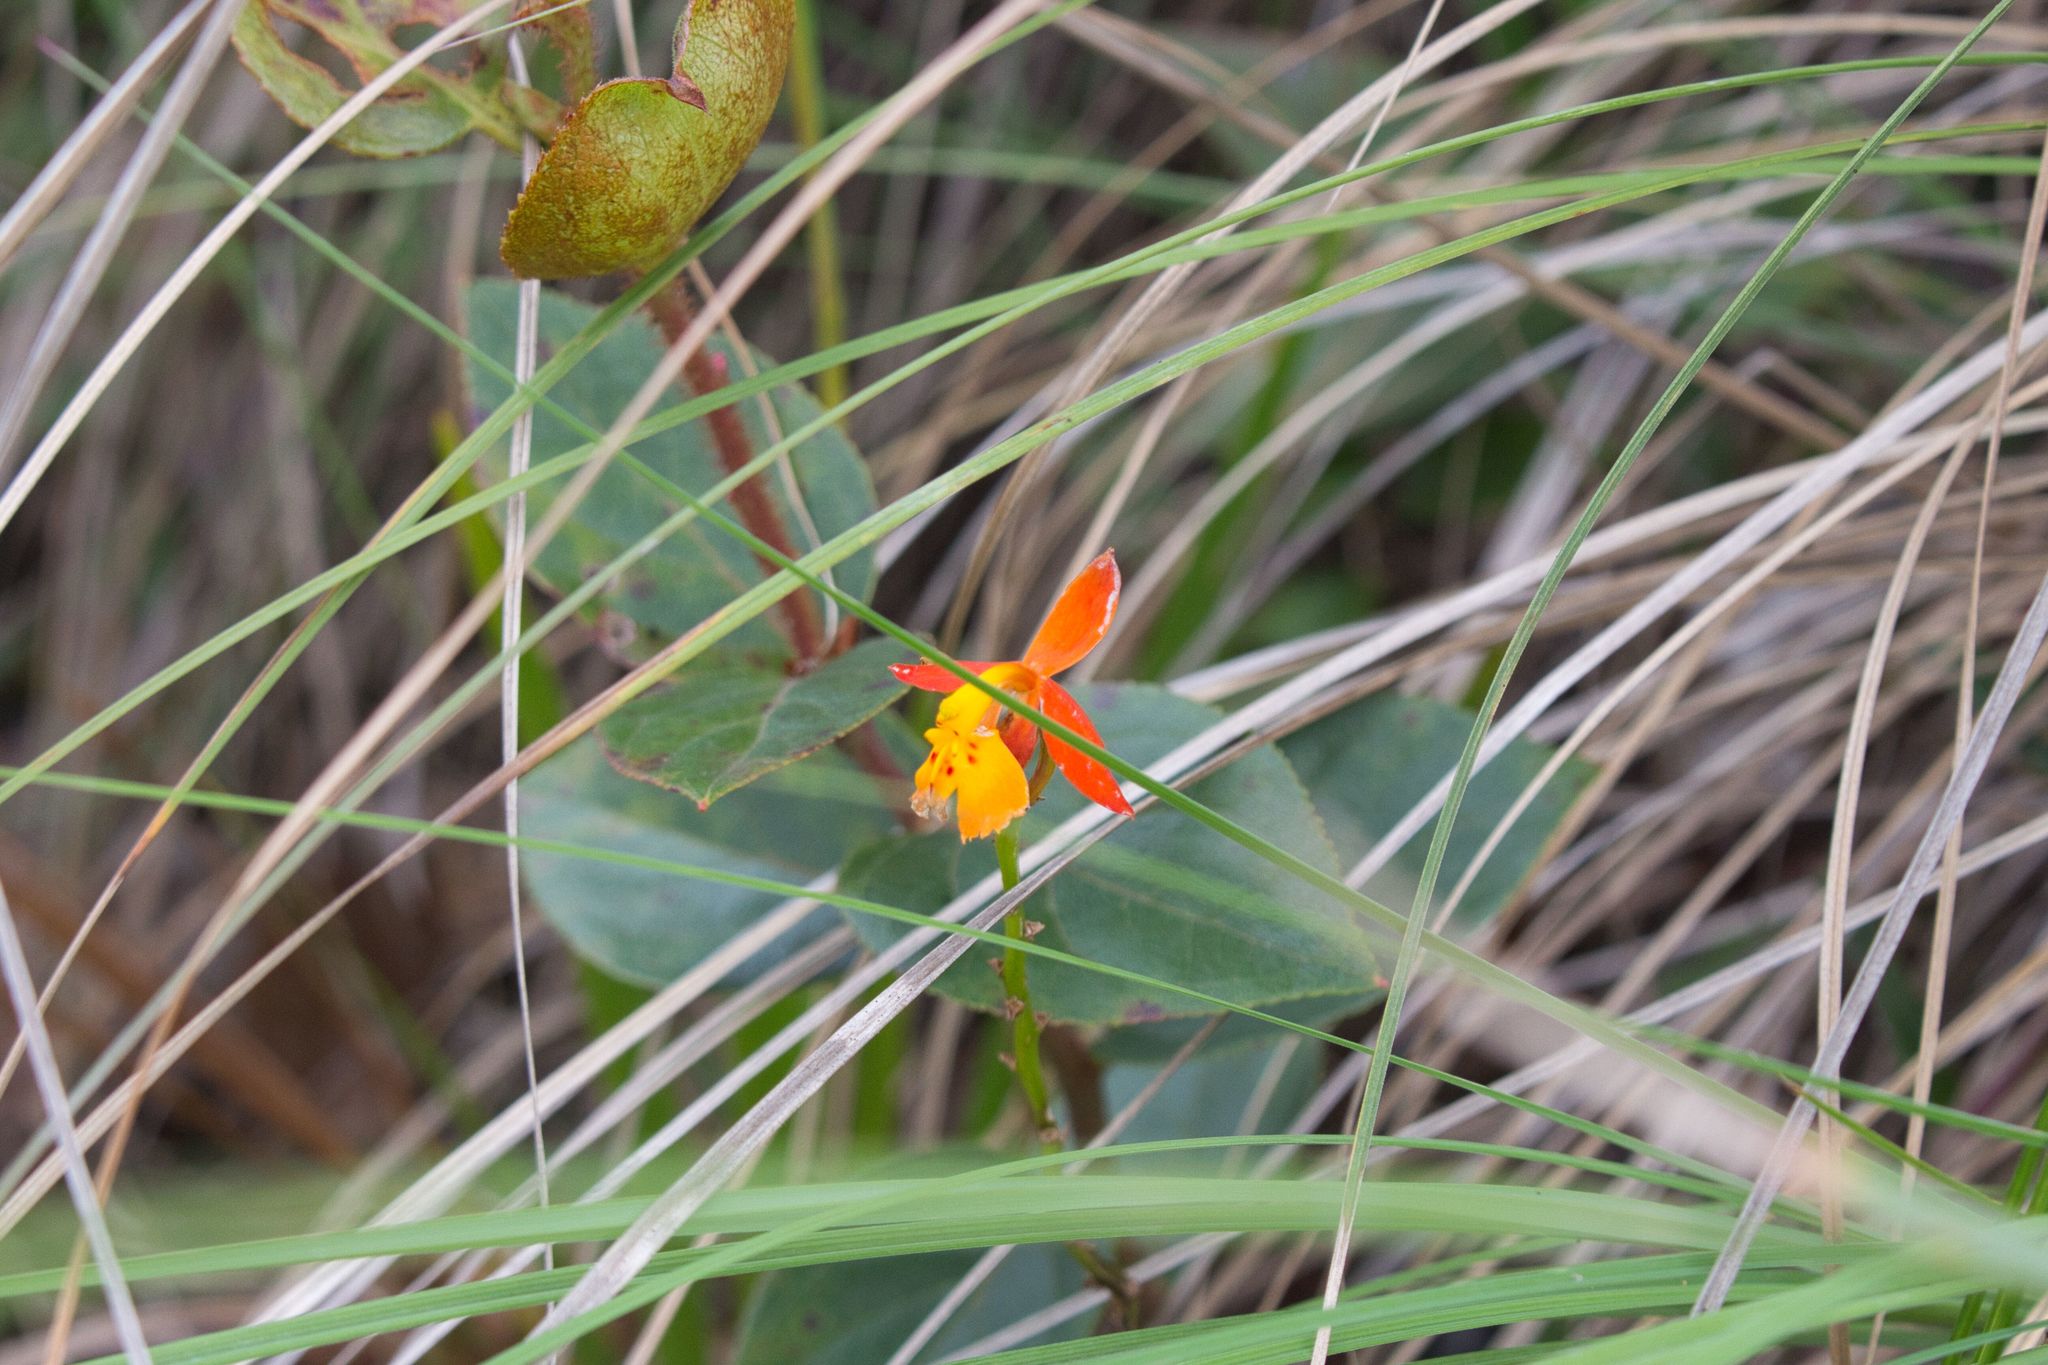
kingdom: Plantae
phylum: Tracheophyta
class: Liliopsida
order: Asparagales
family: Orchidaceae
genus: Epidendrum
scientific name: Epidendrum radicans
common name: Fire star orchid
